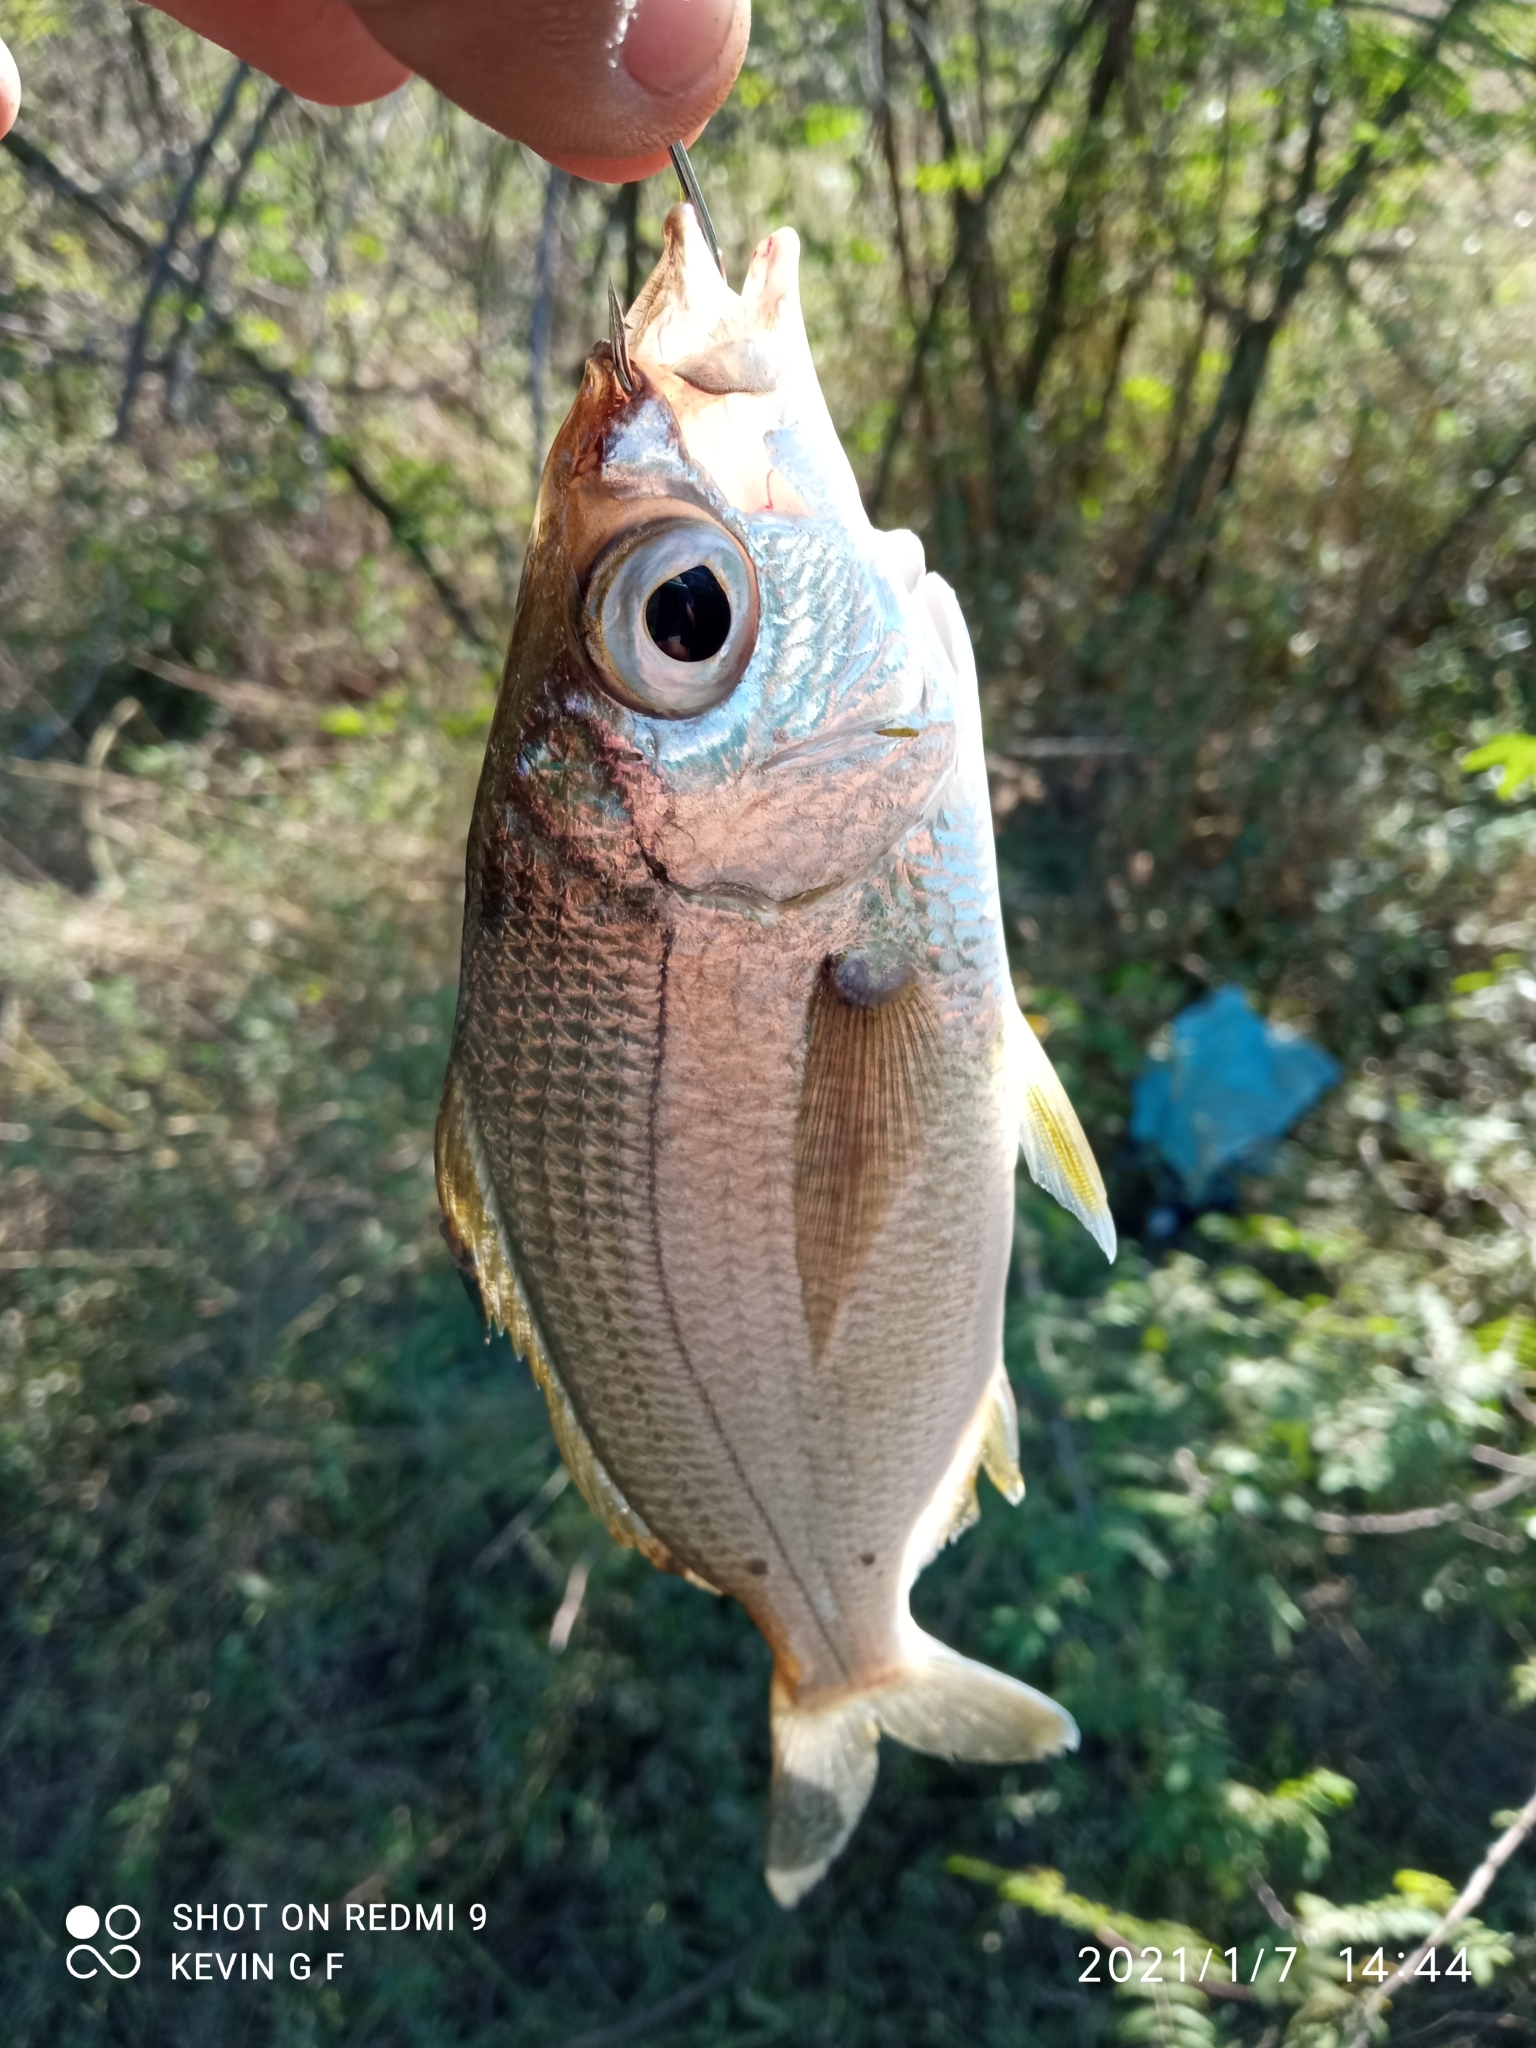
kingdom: Animalia
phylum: Chordata
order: Perciformes
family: Gerreidae
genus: Eucinostomus
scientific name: Eucinostomus entomelas
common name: Darkspot mojarra
